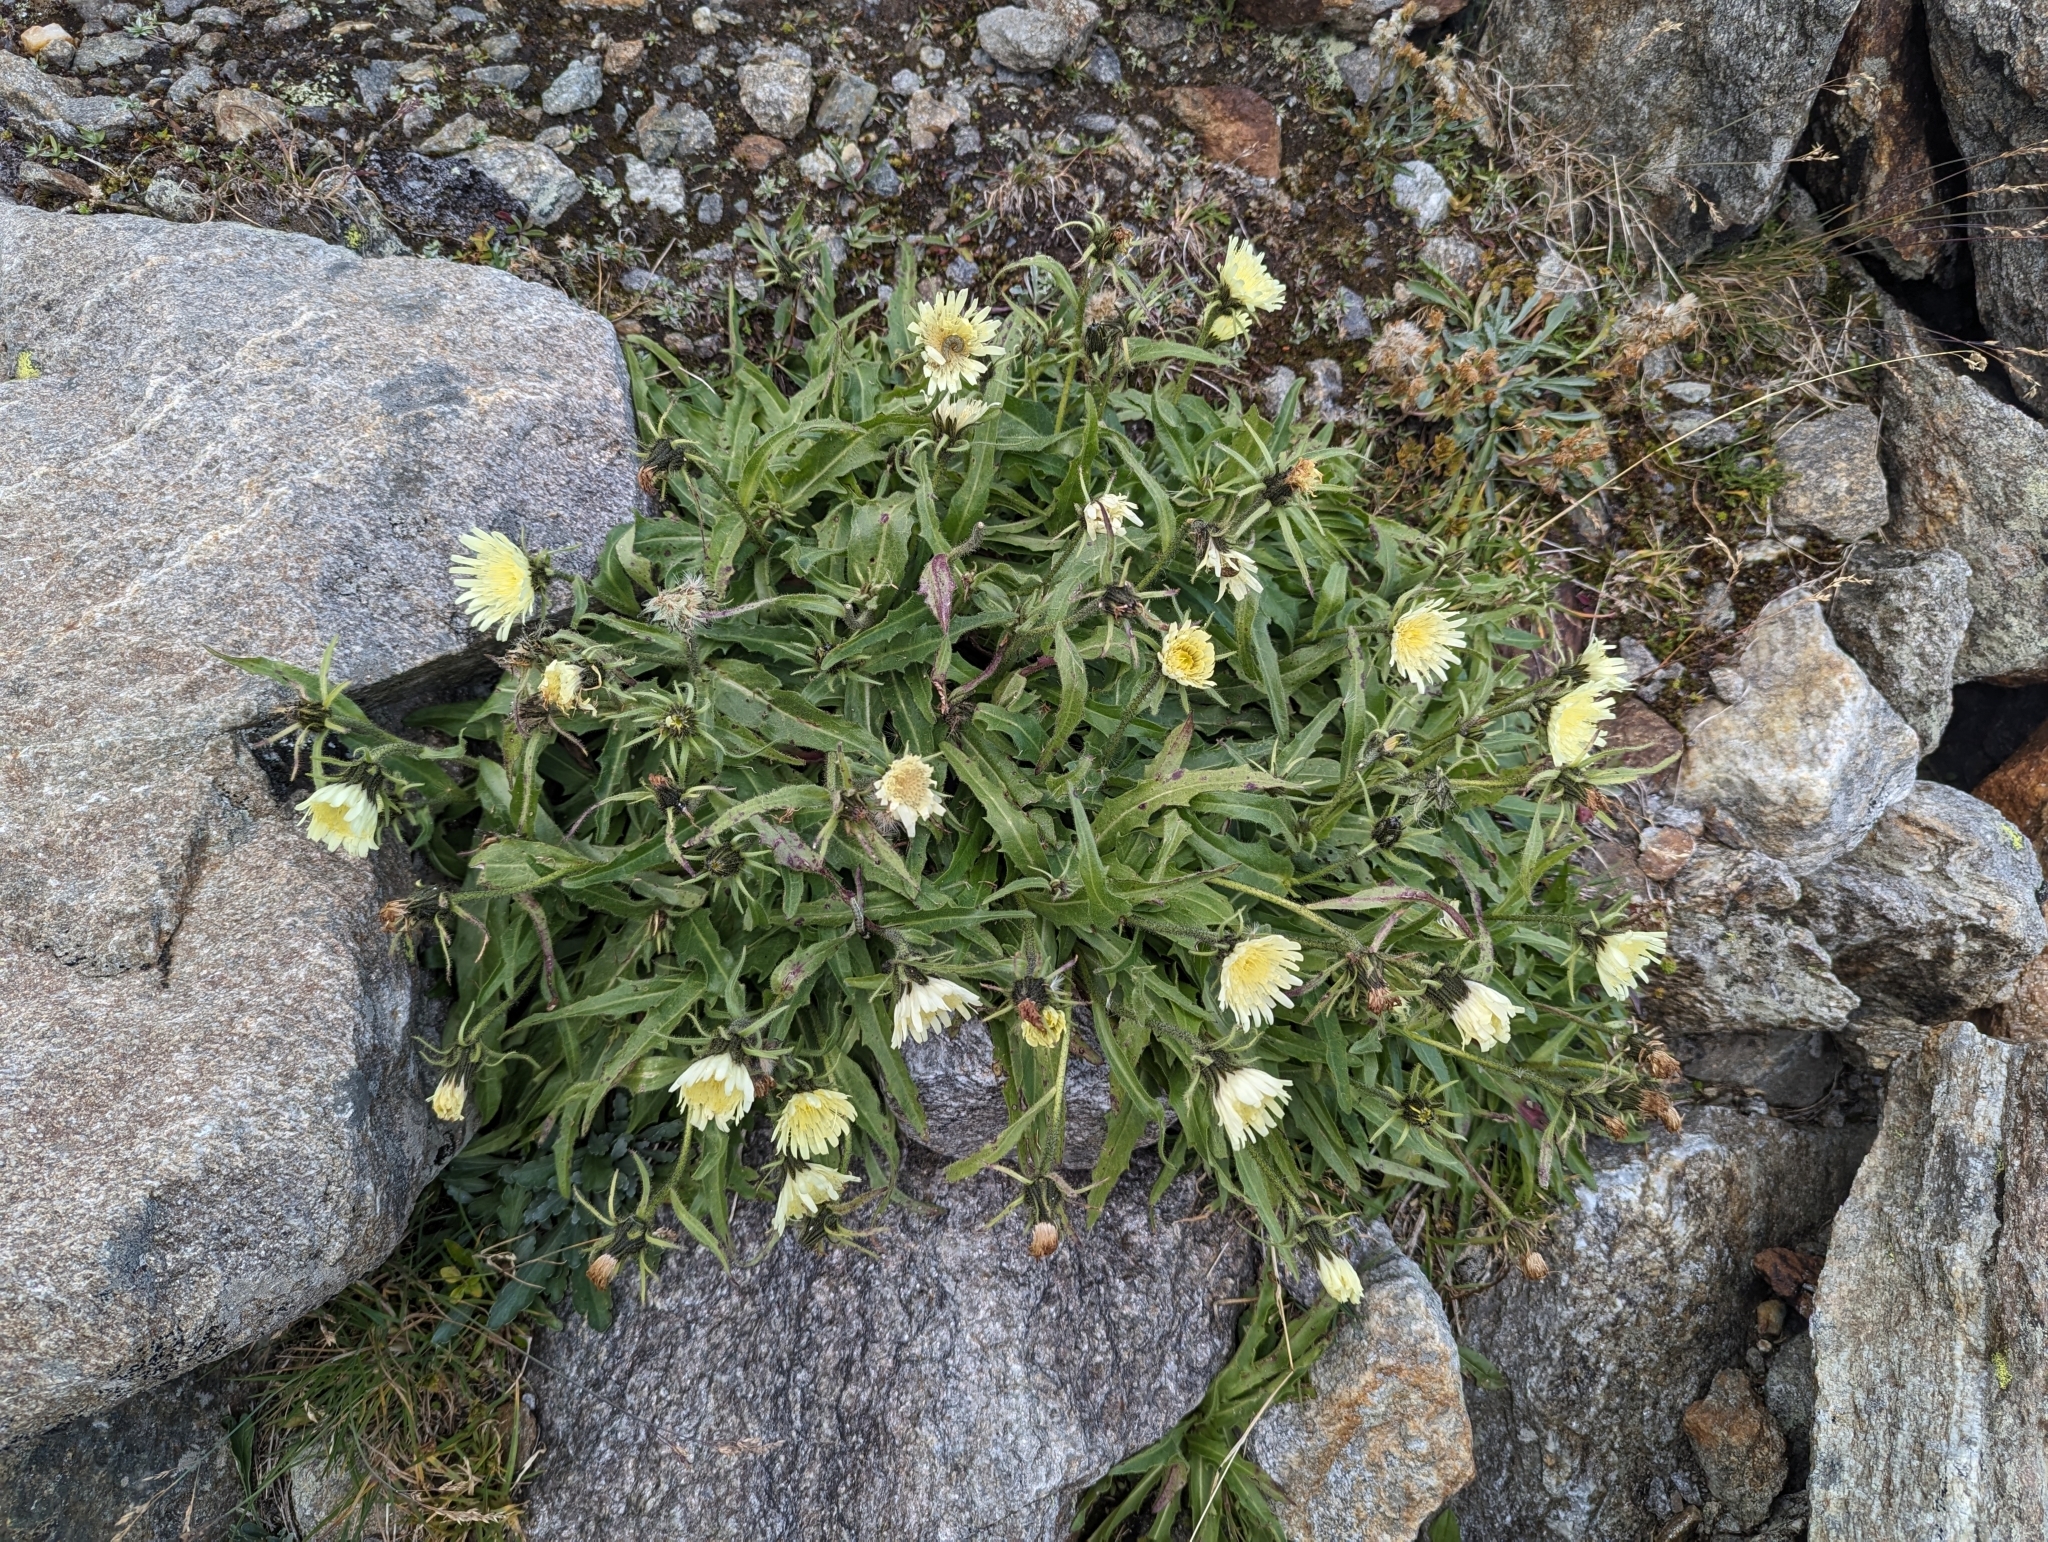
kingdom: Plantae
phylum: Tracheophyta
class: Magnoliopsida
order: Asterales
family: Asteraceae
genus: Schlagintweitia
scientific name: Schlagintweitia intybacea
